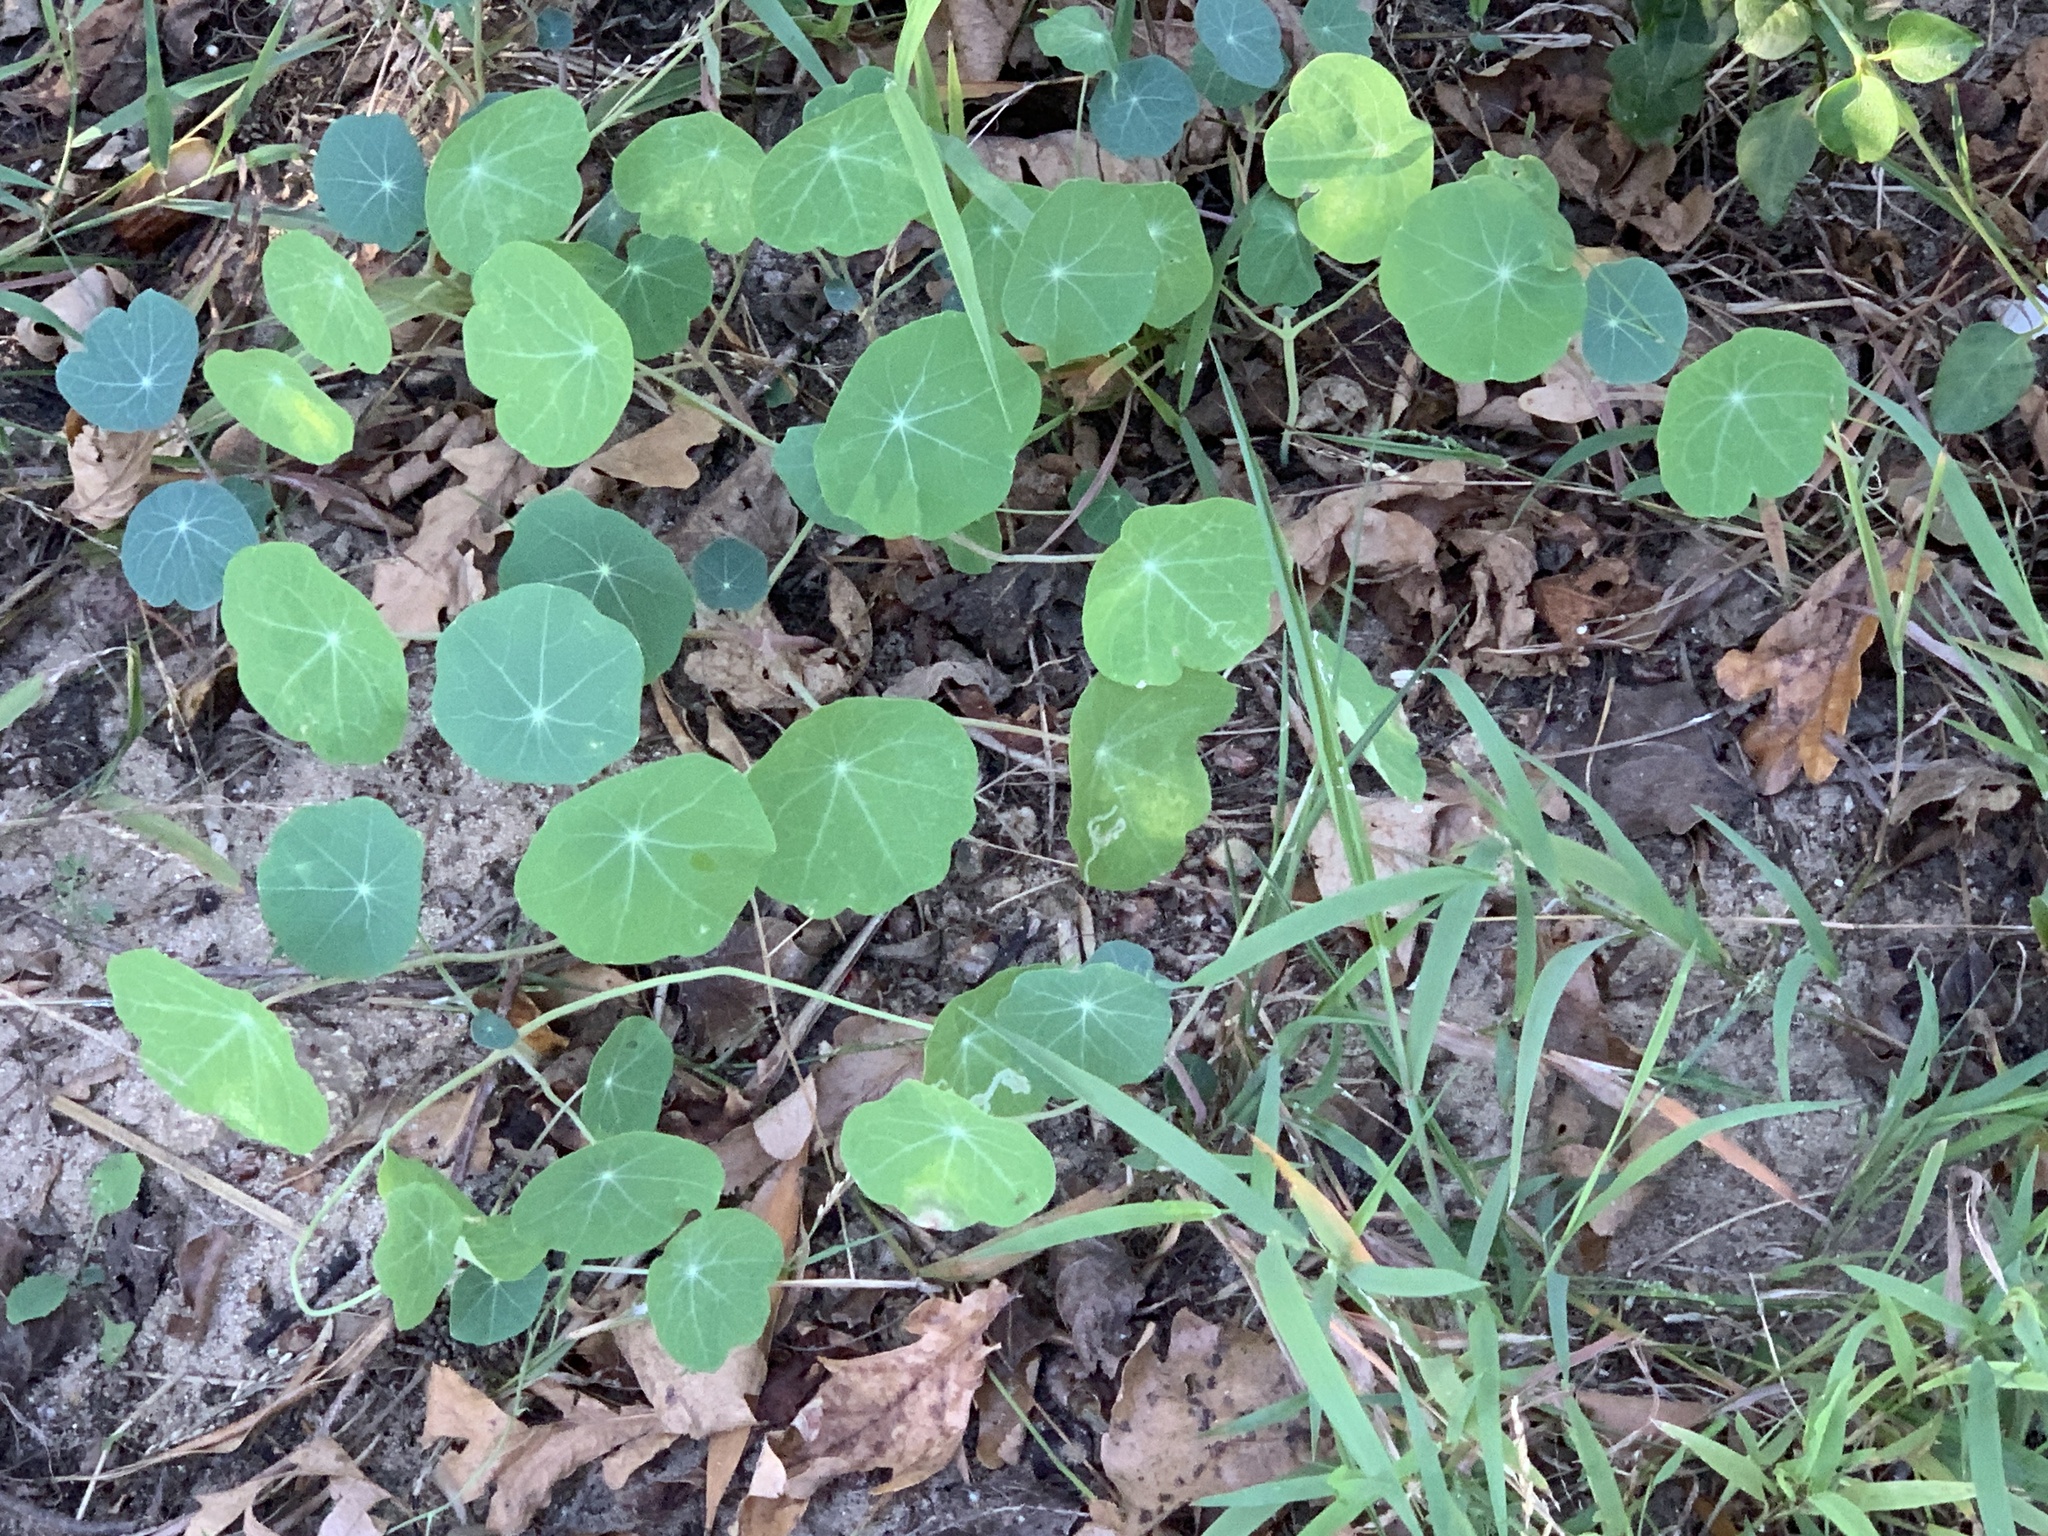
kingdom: Plantae
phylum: Tracheophyta
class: Magnoliopsida
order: Brassicales
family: Tropaeolaceae
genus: Tropaeolum
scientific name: Tropaeolum majus
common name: Nasturtium
